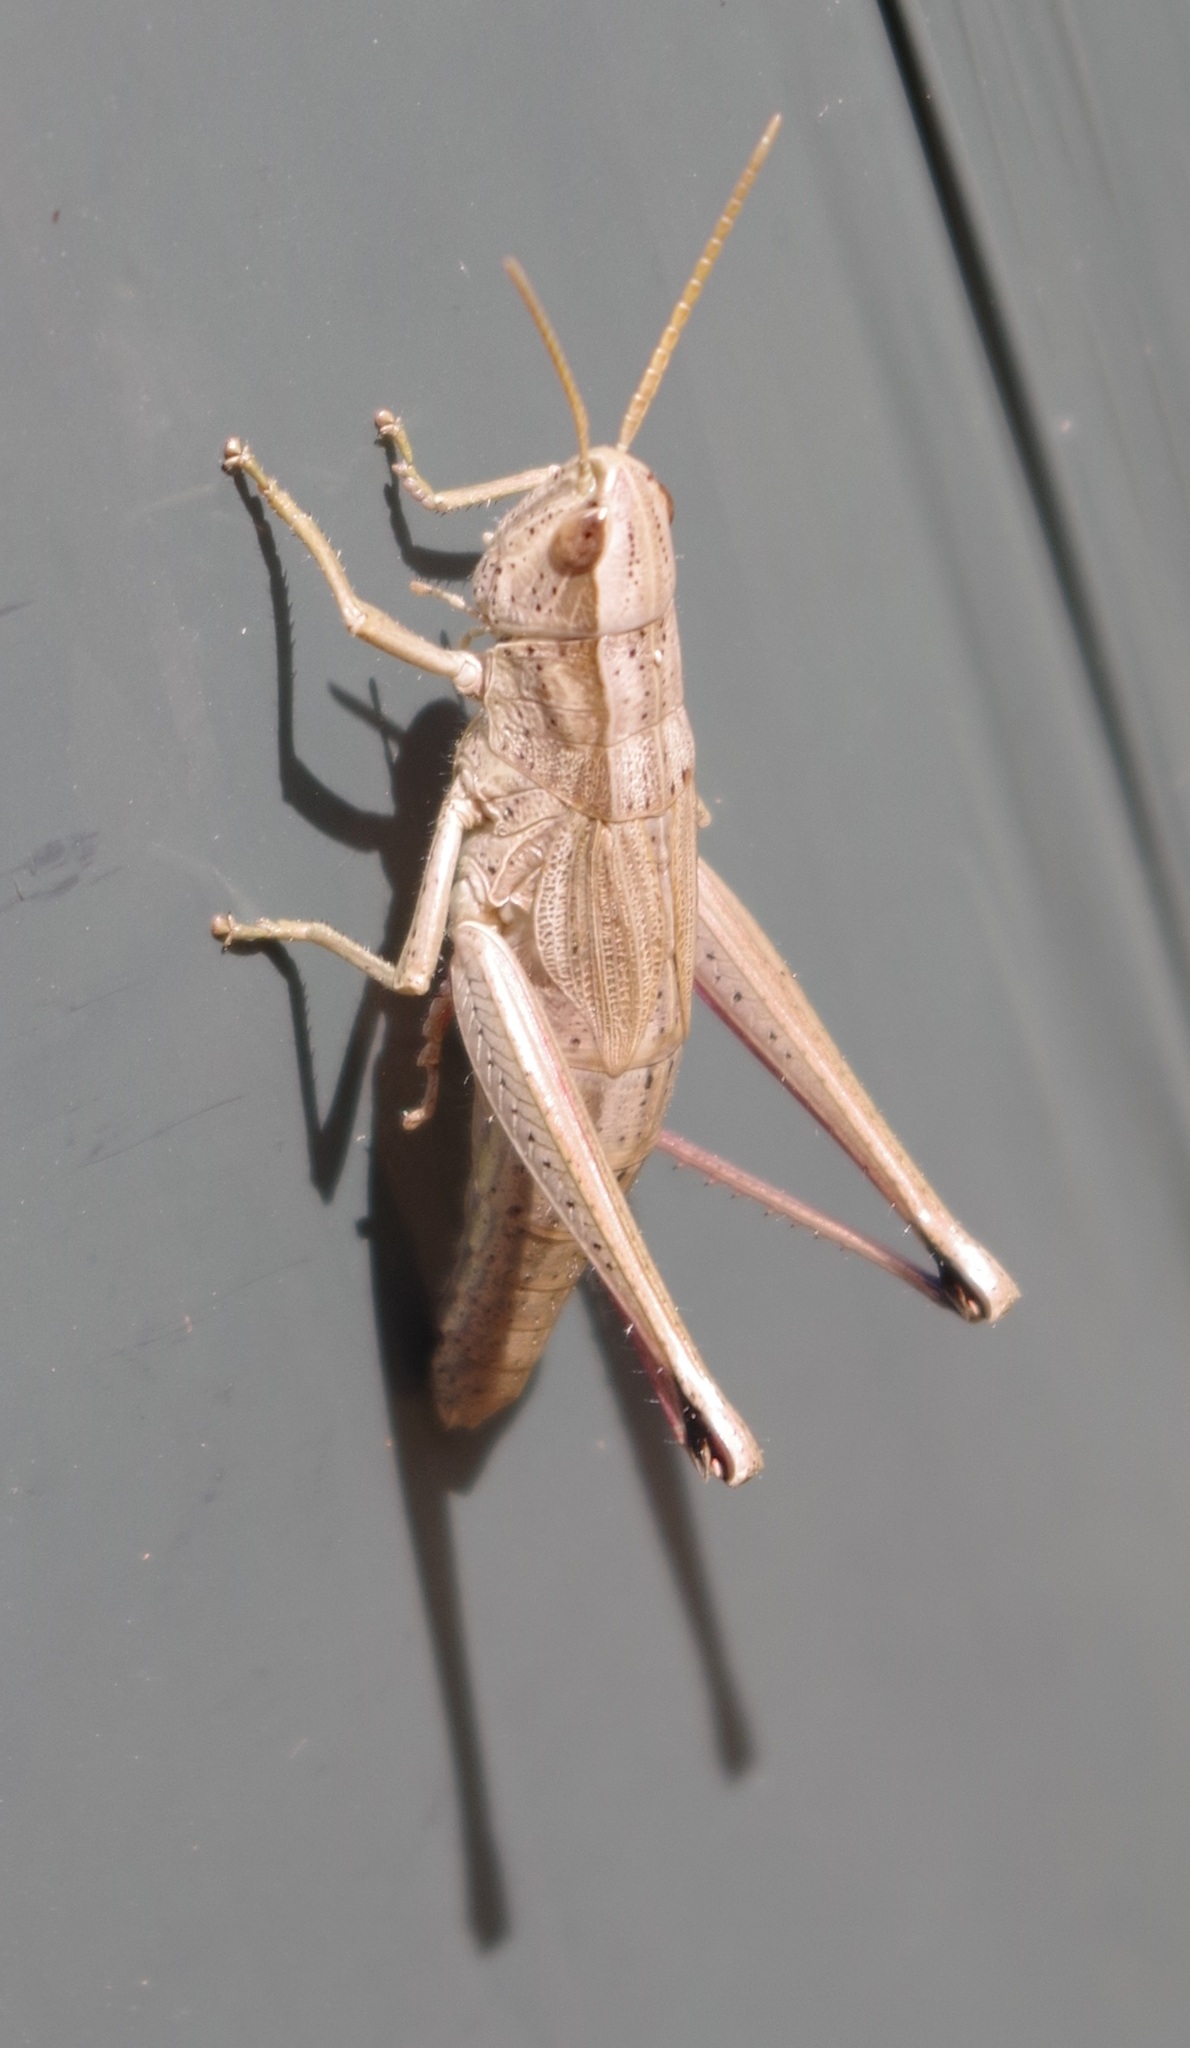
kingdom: Animalia
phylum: Arthropoda
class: Insecta
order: Orthoptera
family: Acrididae
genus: Chrysochraon
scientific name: Chrysochraon dispar
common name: Large gold grasshopper
